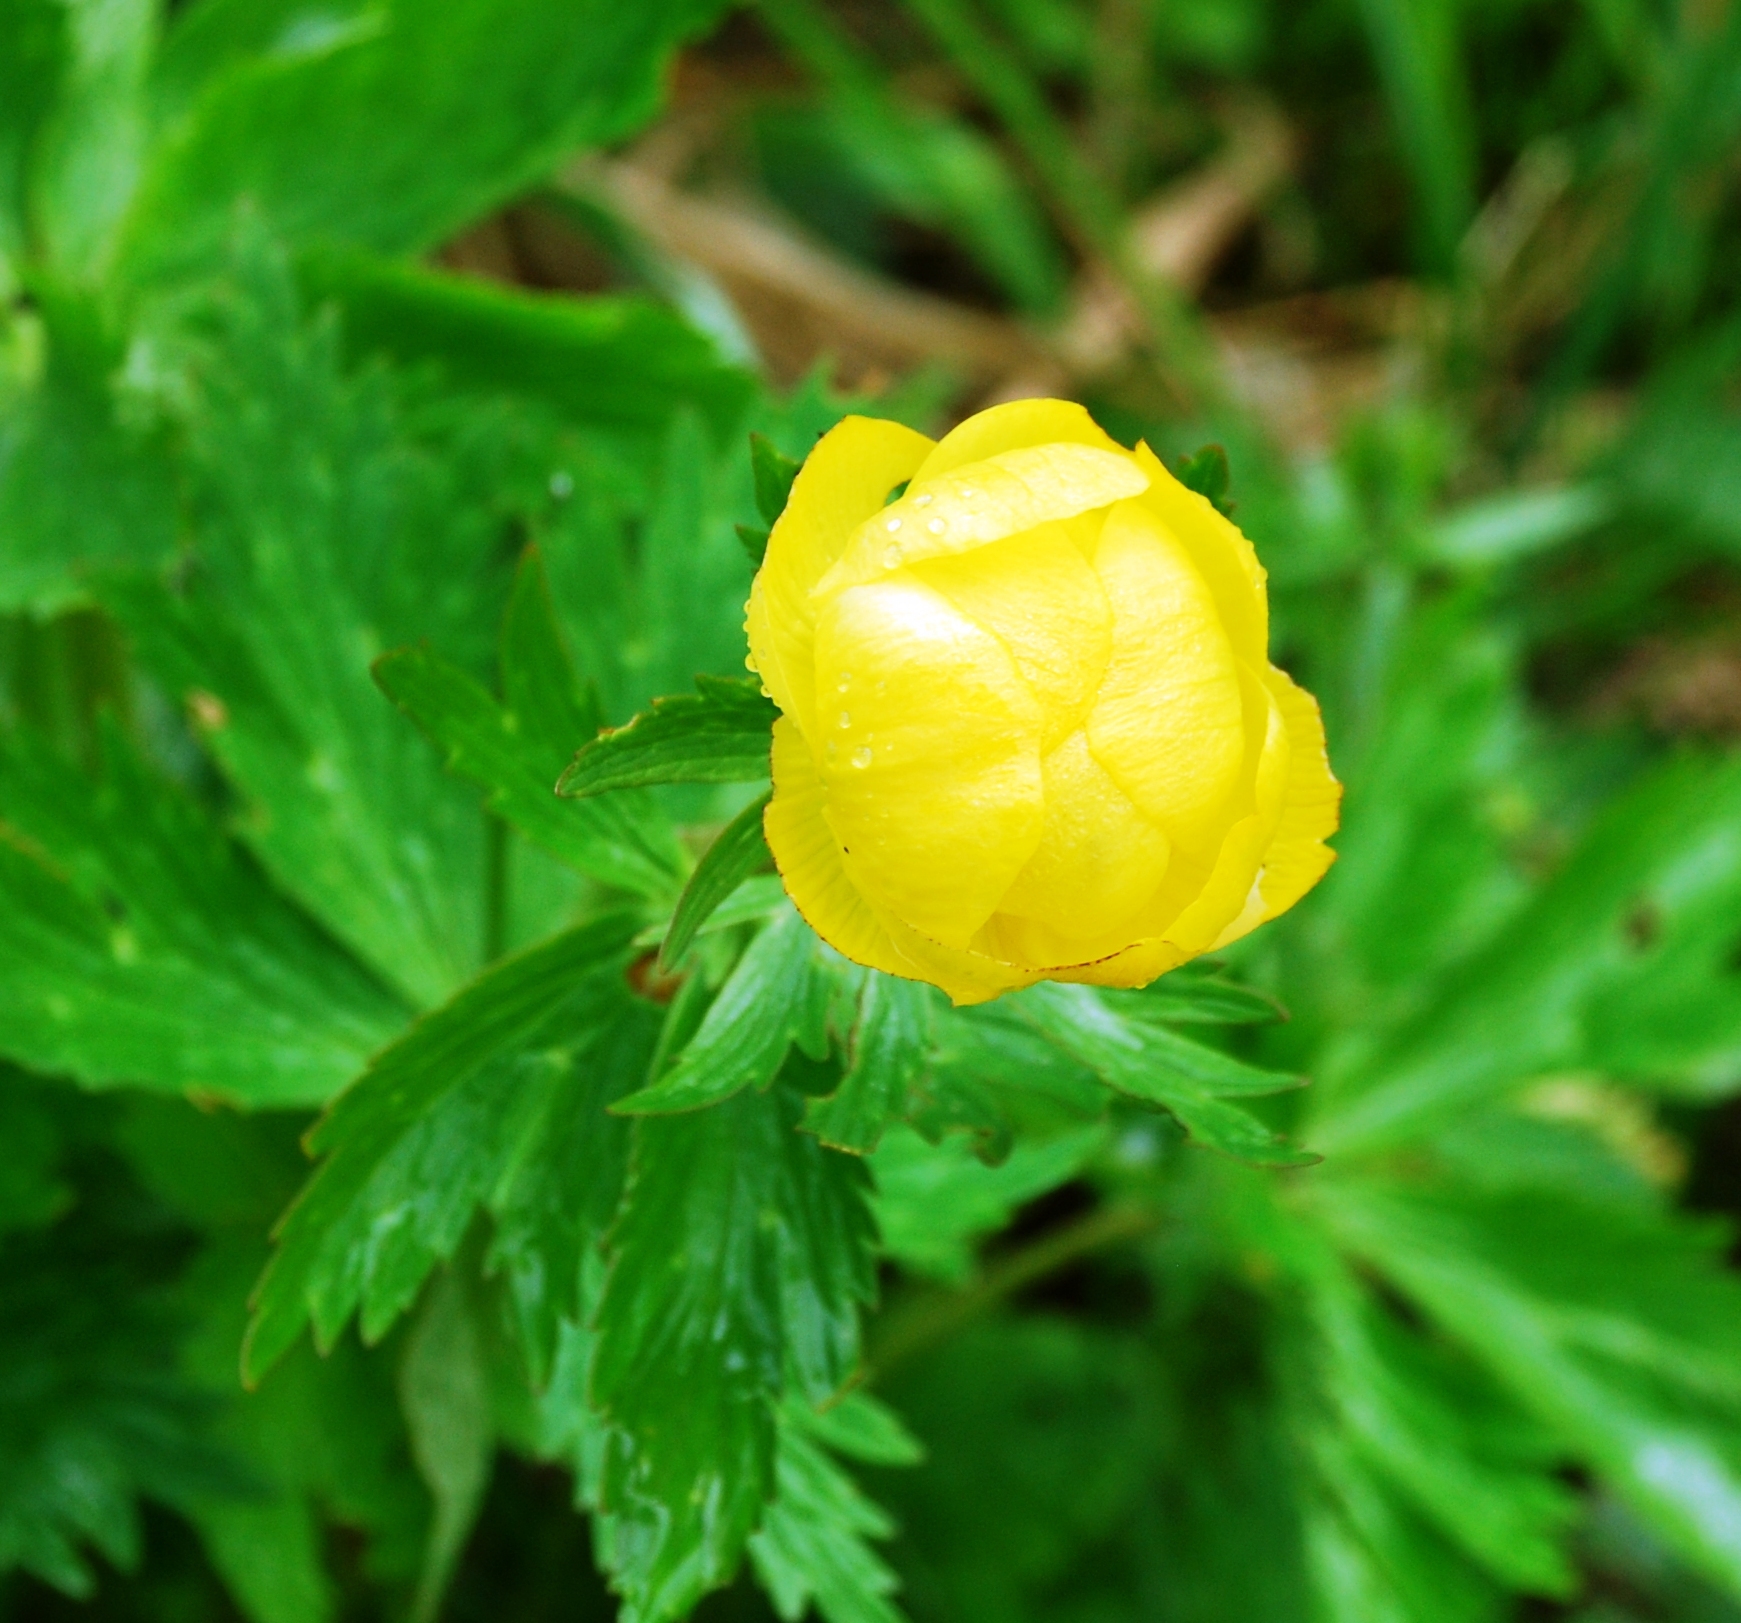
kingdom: Plantae
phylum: Tracheophyta
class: Magnoliopsida
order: Ranunculales
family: Ranunculaceae
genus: Trollius
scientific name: Trollius europaeus
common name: European globeflower
